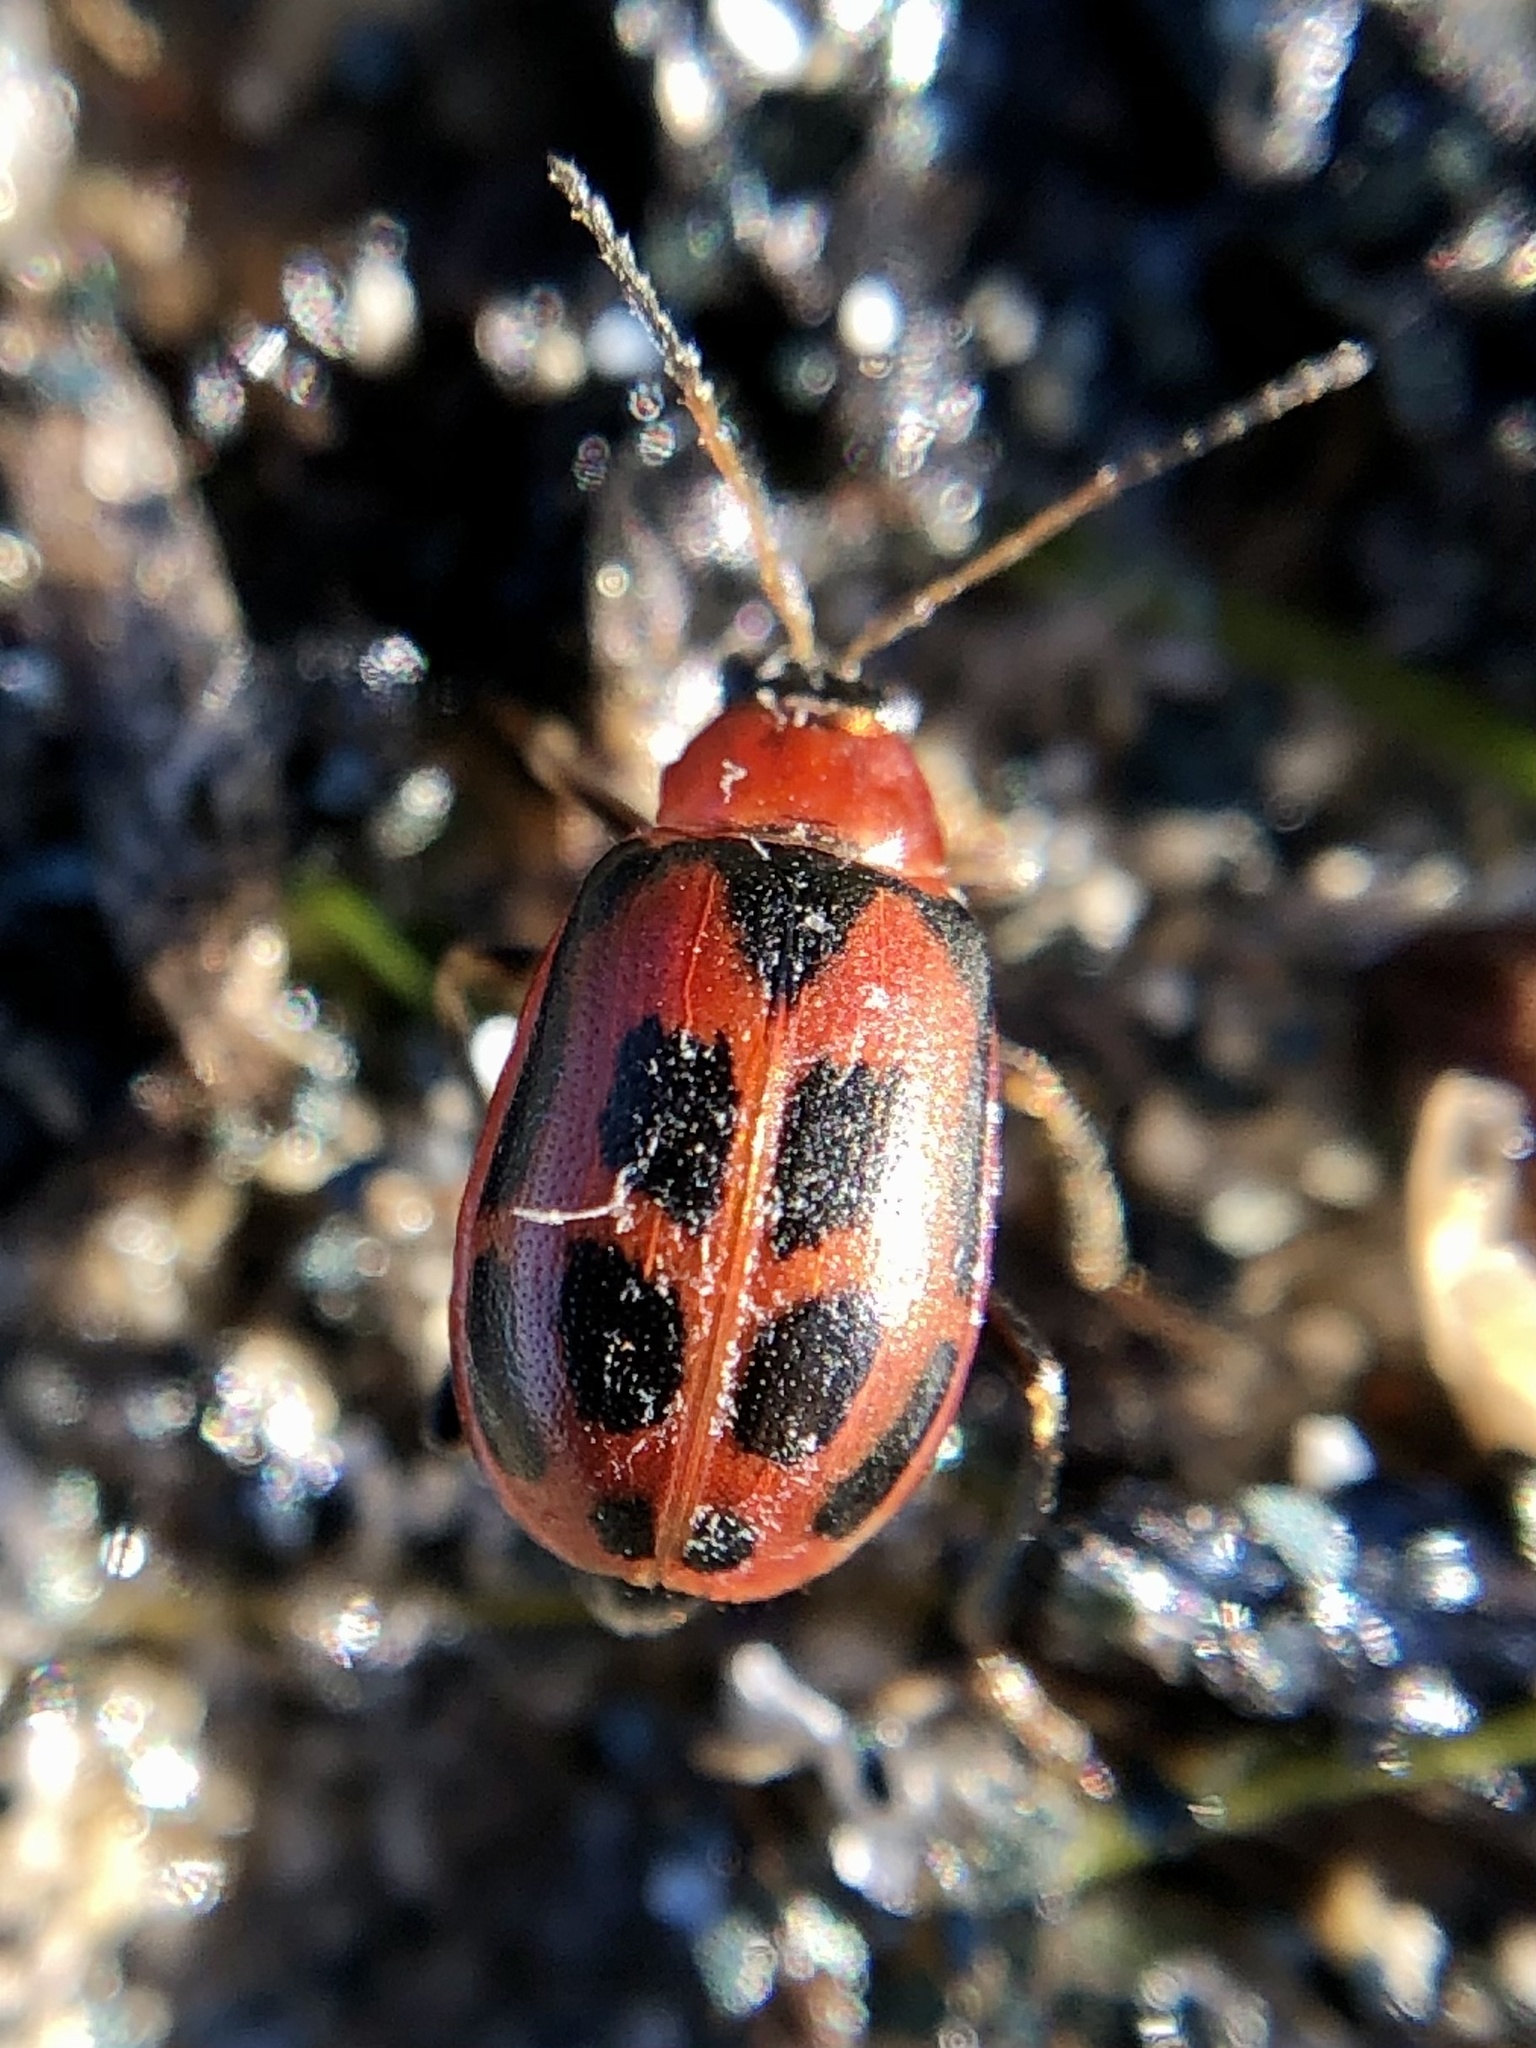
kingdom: Animalia
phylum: Arthropoda
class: Insecta
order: Coleoptera
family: Chrysomelidae
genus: Cerotoma
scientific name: Cerotoma trifurcata
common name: Bean leaf beetle
